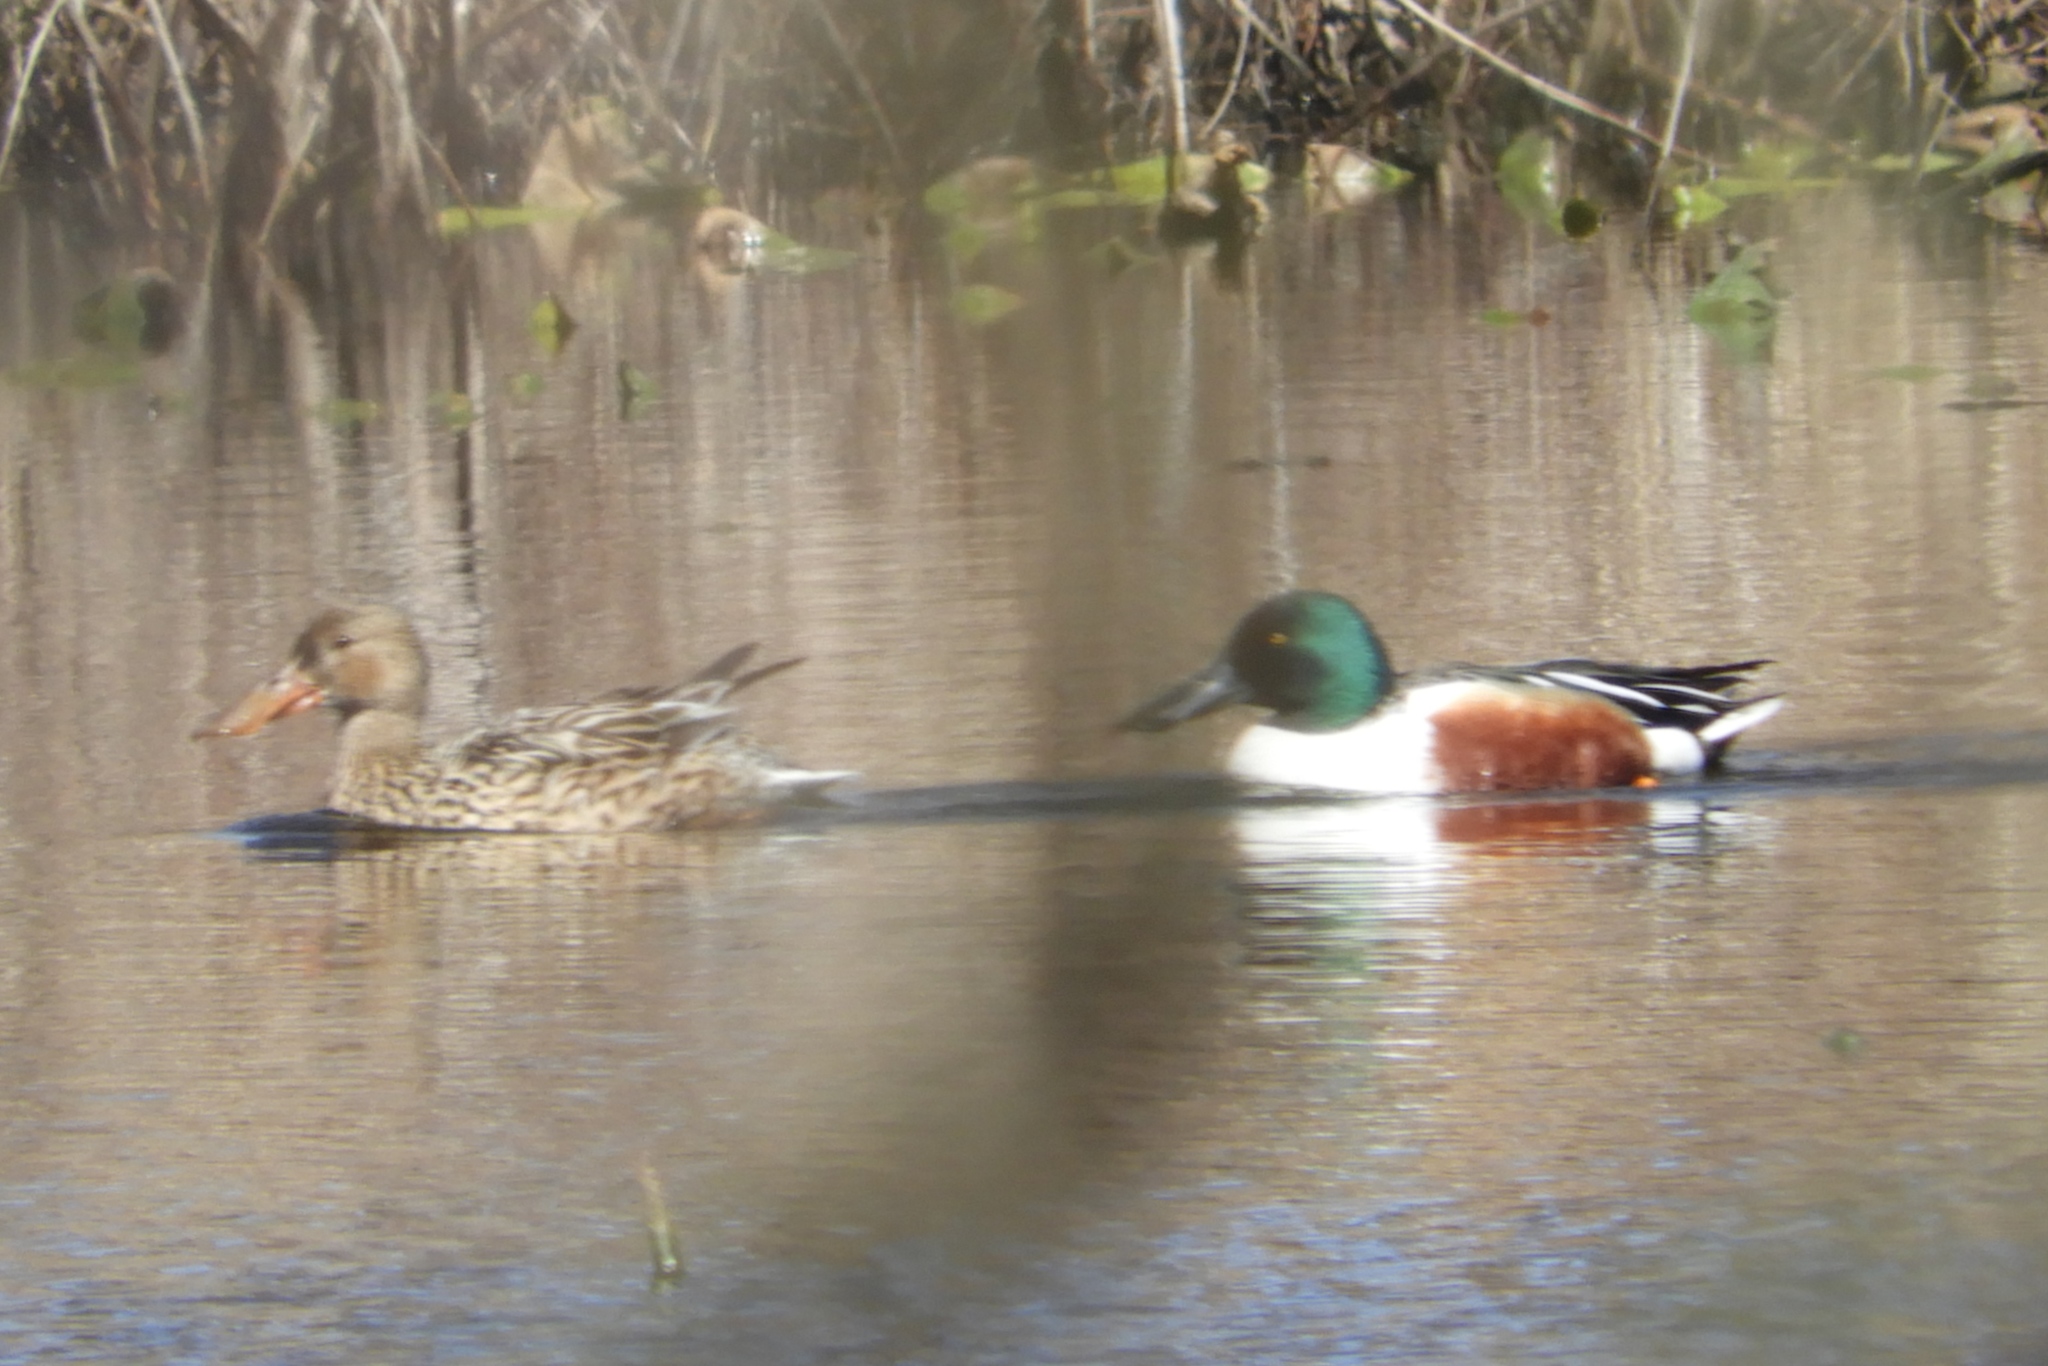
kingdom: Animalia
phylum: Chordata
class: Aves
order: Anseriformes
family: Anatidae
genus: Spatula
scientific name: Spatula clypeata
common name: Northern shoveler
